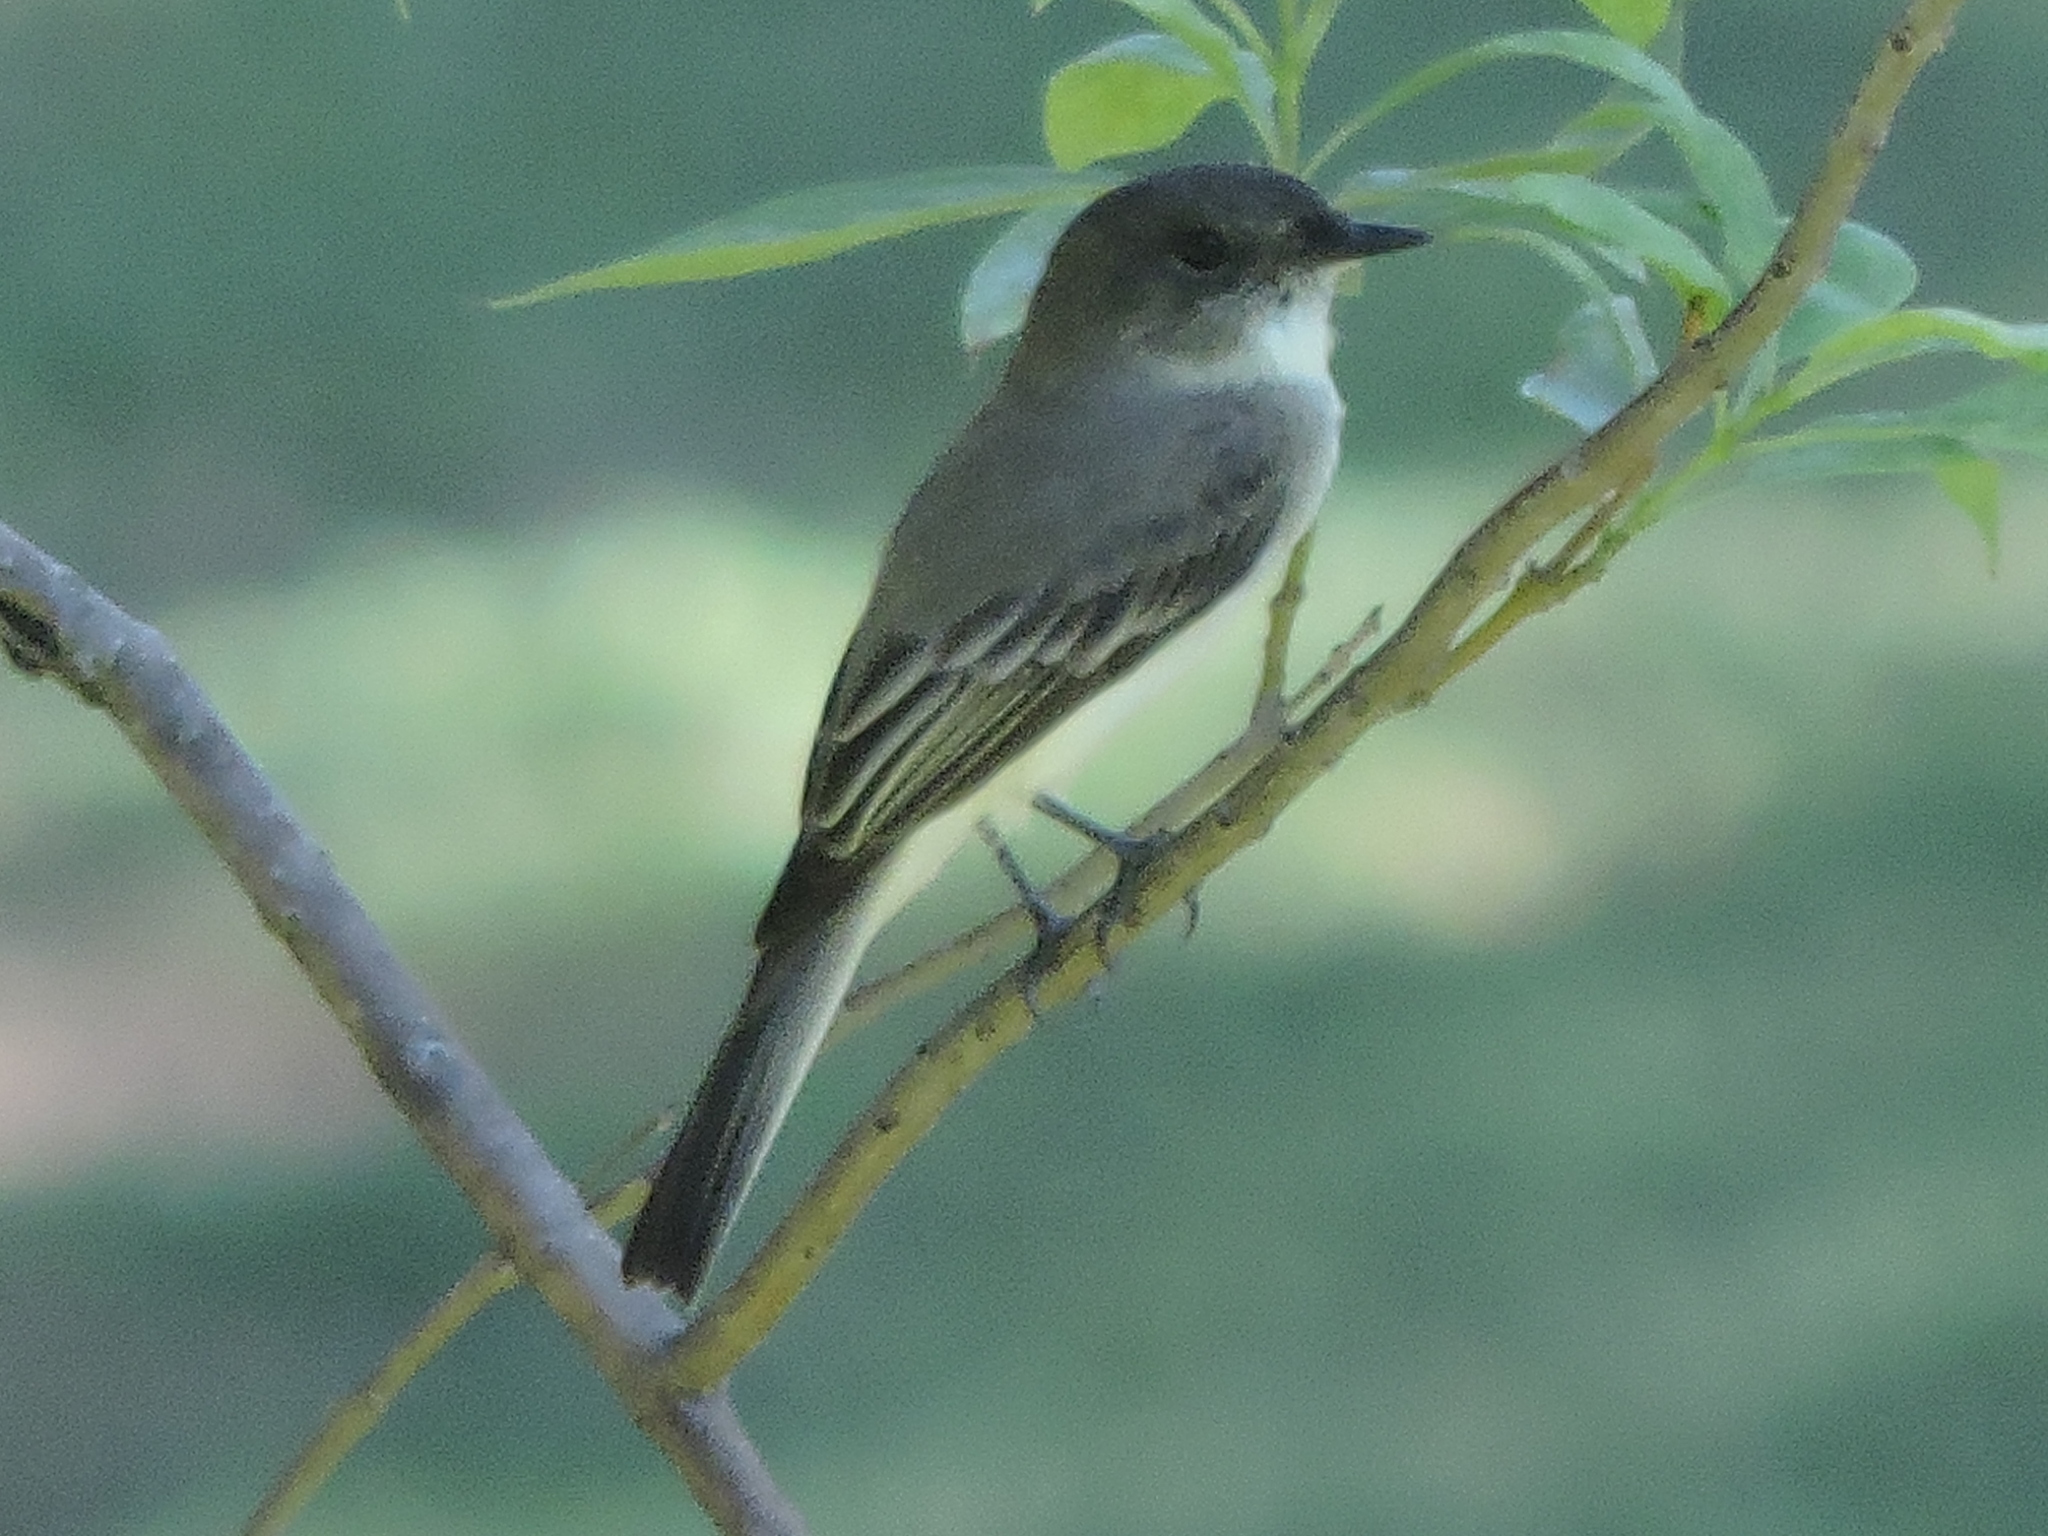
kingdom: Animalia
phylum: Chordata
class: Aves
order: Passeriformes
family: Tyrannidae
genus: Sayornis
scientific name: Sayornis phoebe
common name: Eastern phoebe
